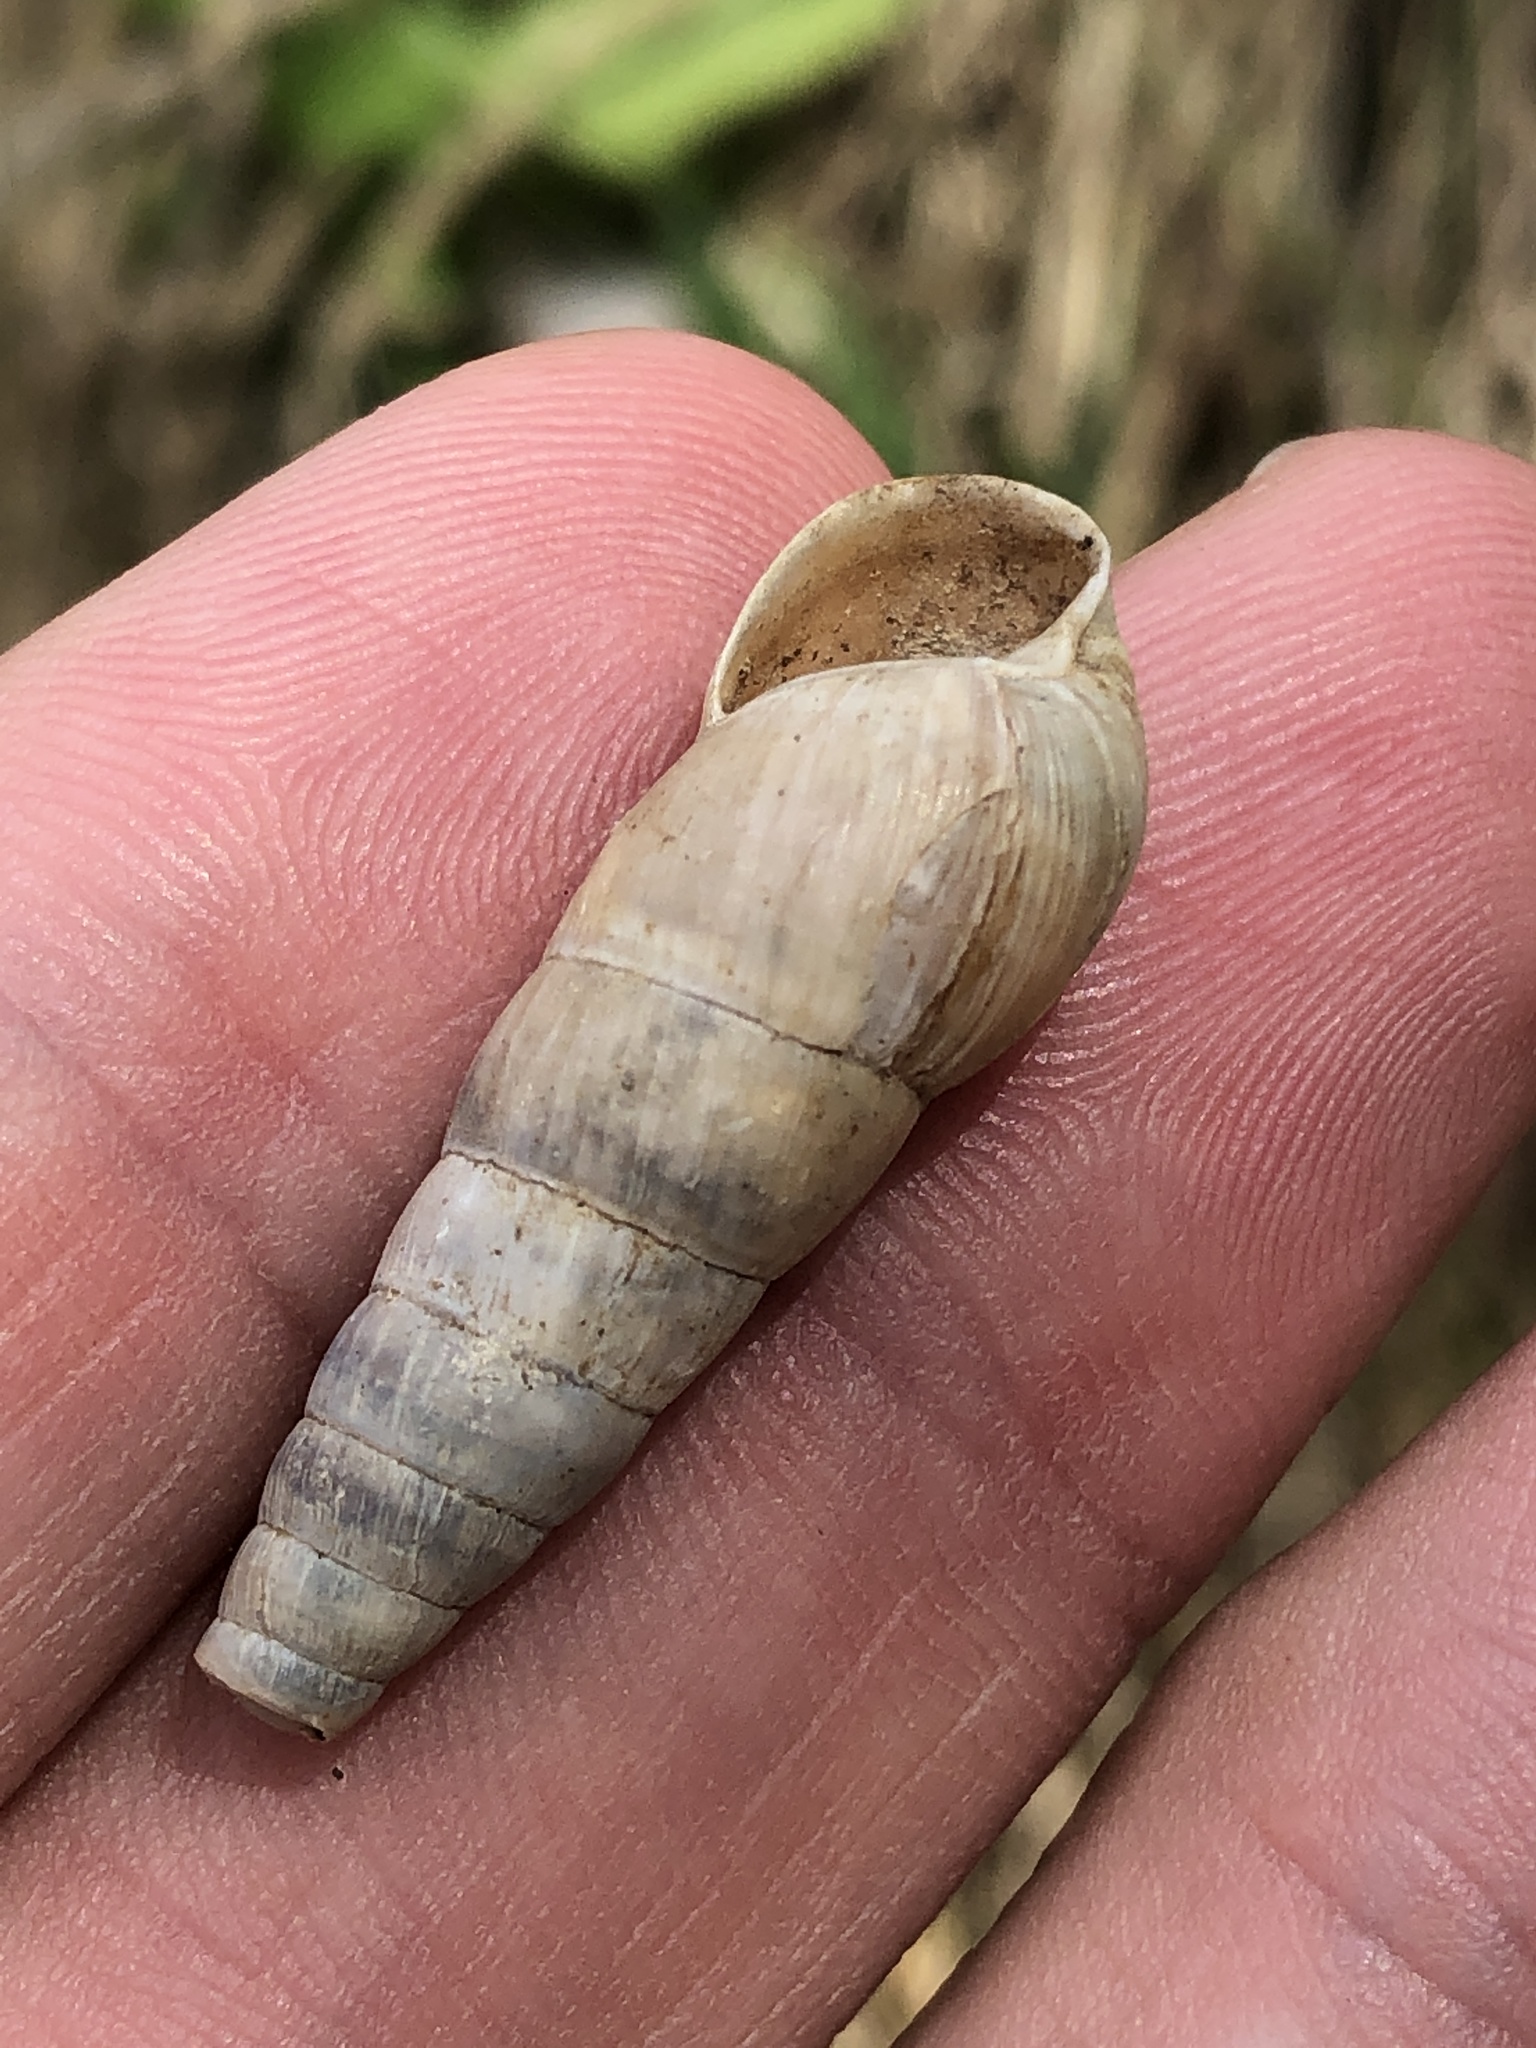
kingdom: Animalia
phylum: Mollusca
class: Gastropoda
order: Stylommatophora
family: Achatinidae
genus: Rumina
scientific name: Rumina decollata
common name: Decollate snail
